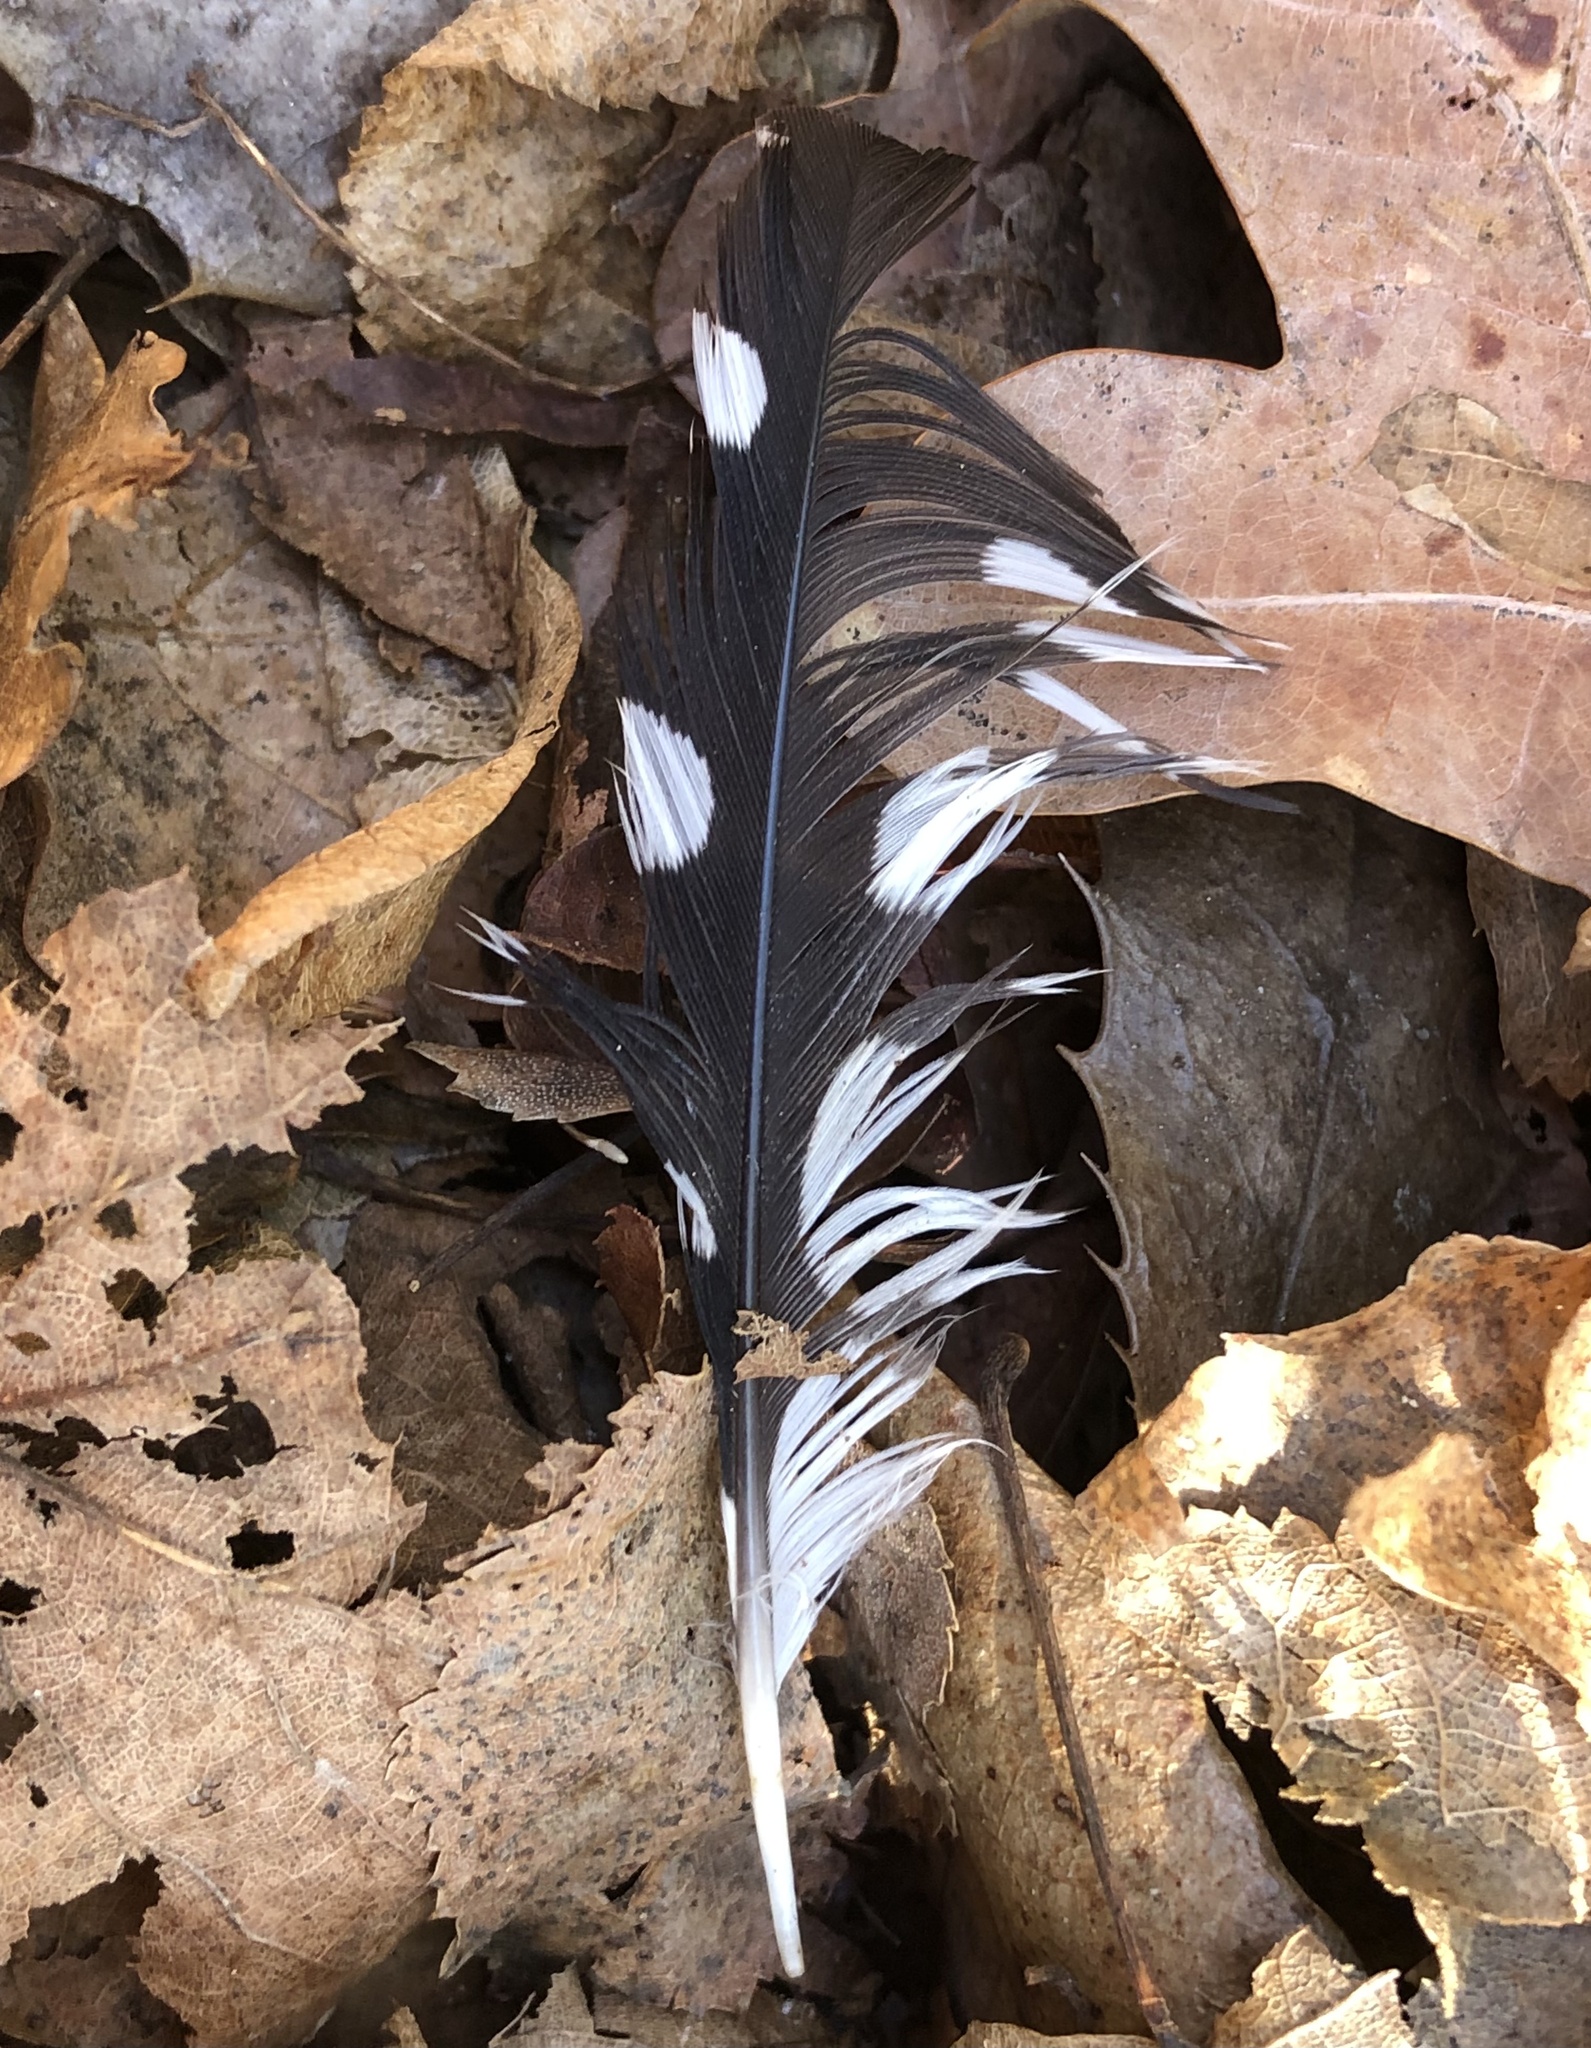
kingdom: Animalia
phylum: Chordata
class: Aves
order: Piciformes
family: Picidae
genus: Dendrocopos
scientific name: Dendrocopos major
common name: Great spotted woodpecker
